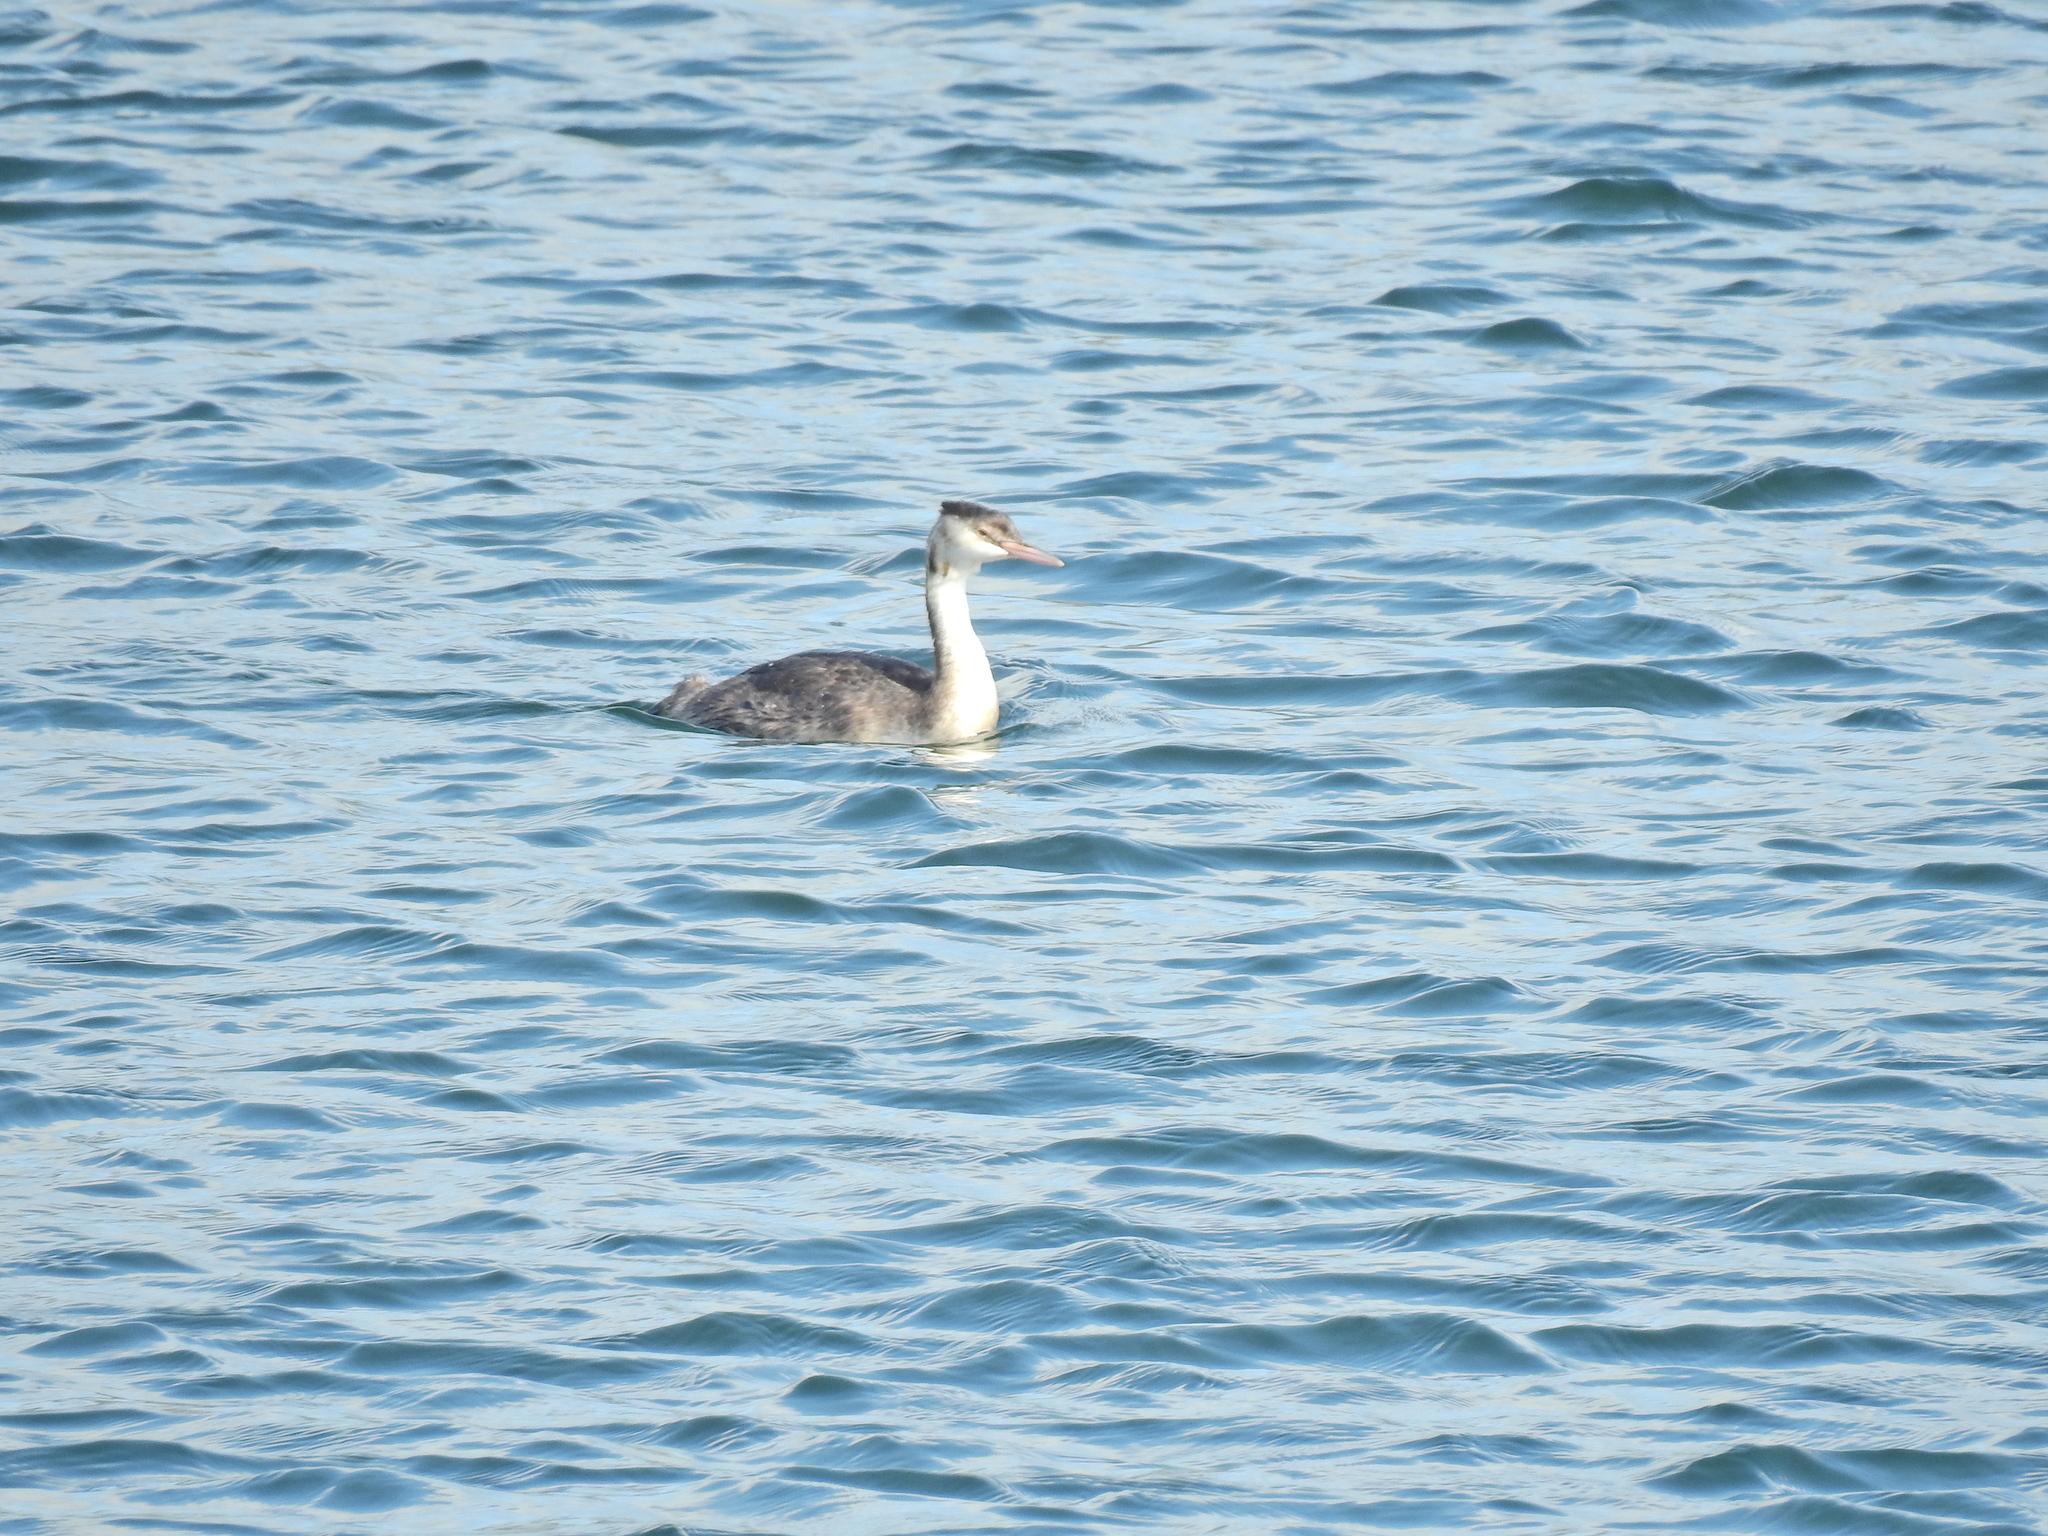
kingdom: Animalia
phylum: Chordata
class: Aves
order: Podicipediformes
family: Podicipedidae
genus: Podiceps
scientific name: Podiceps cristatus
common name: Great crested grebe
